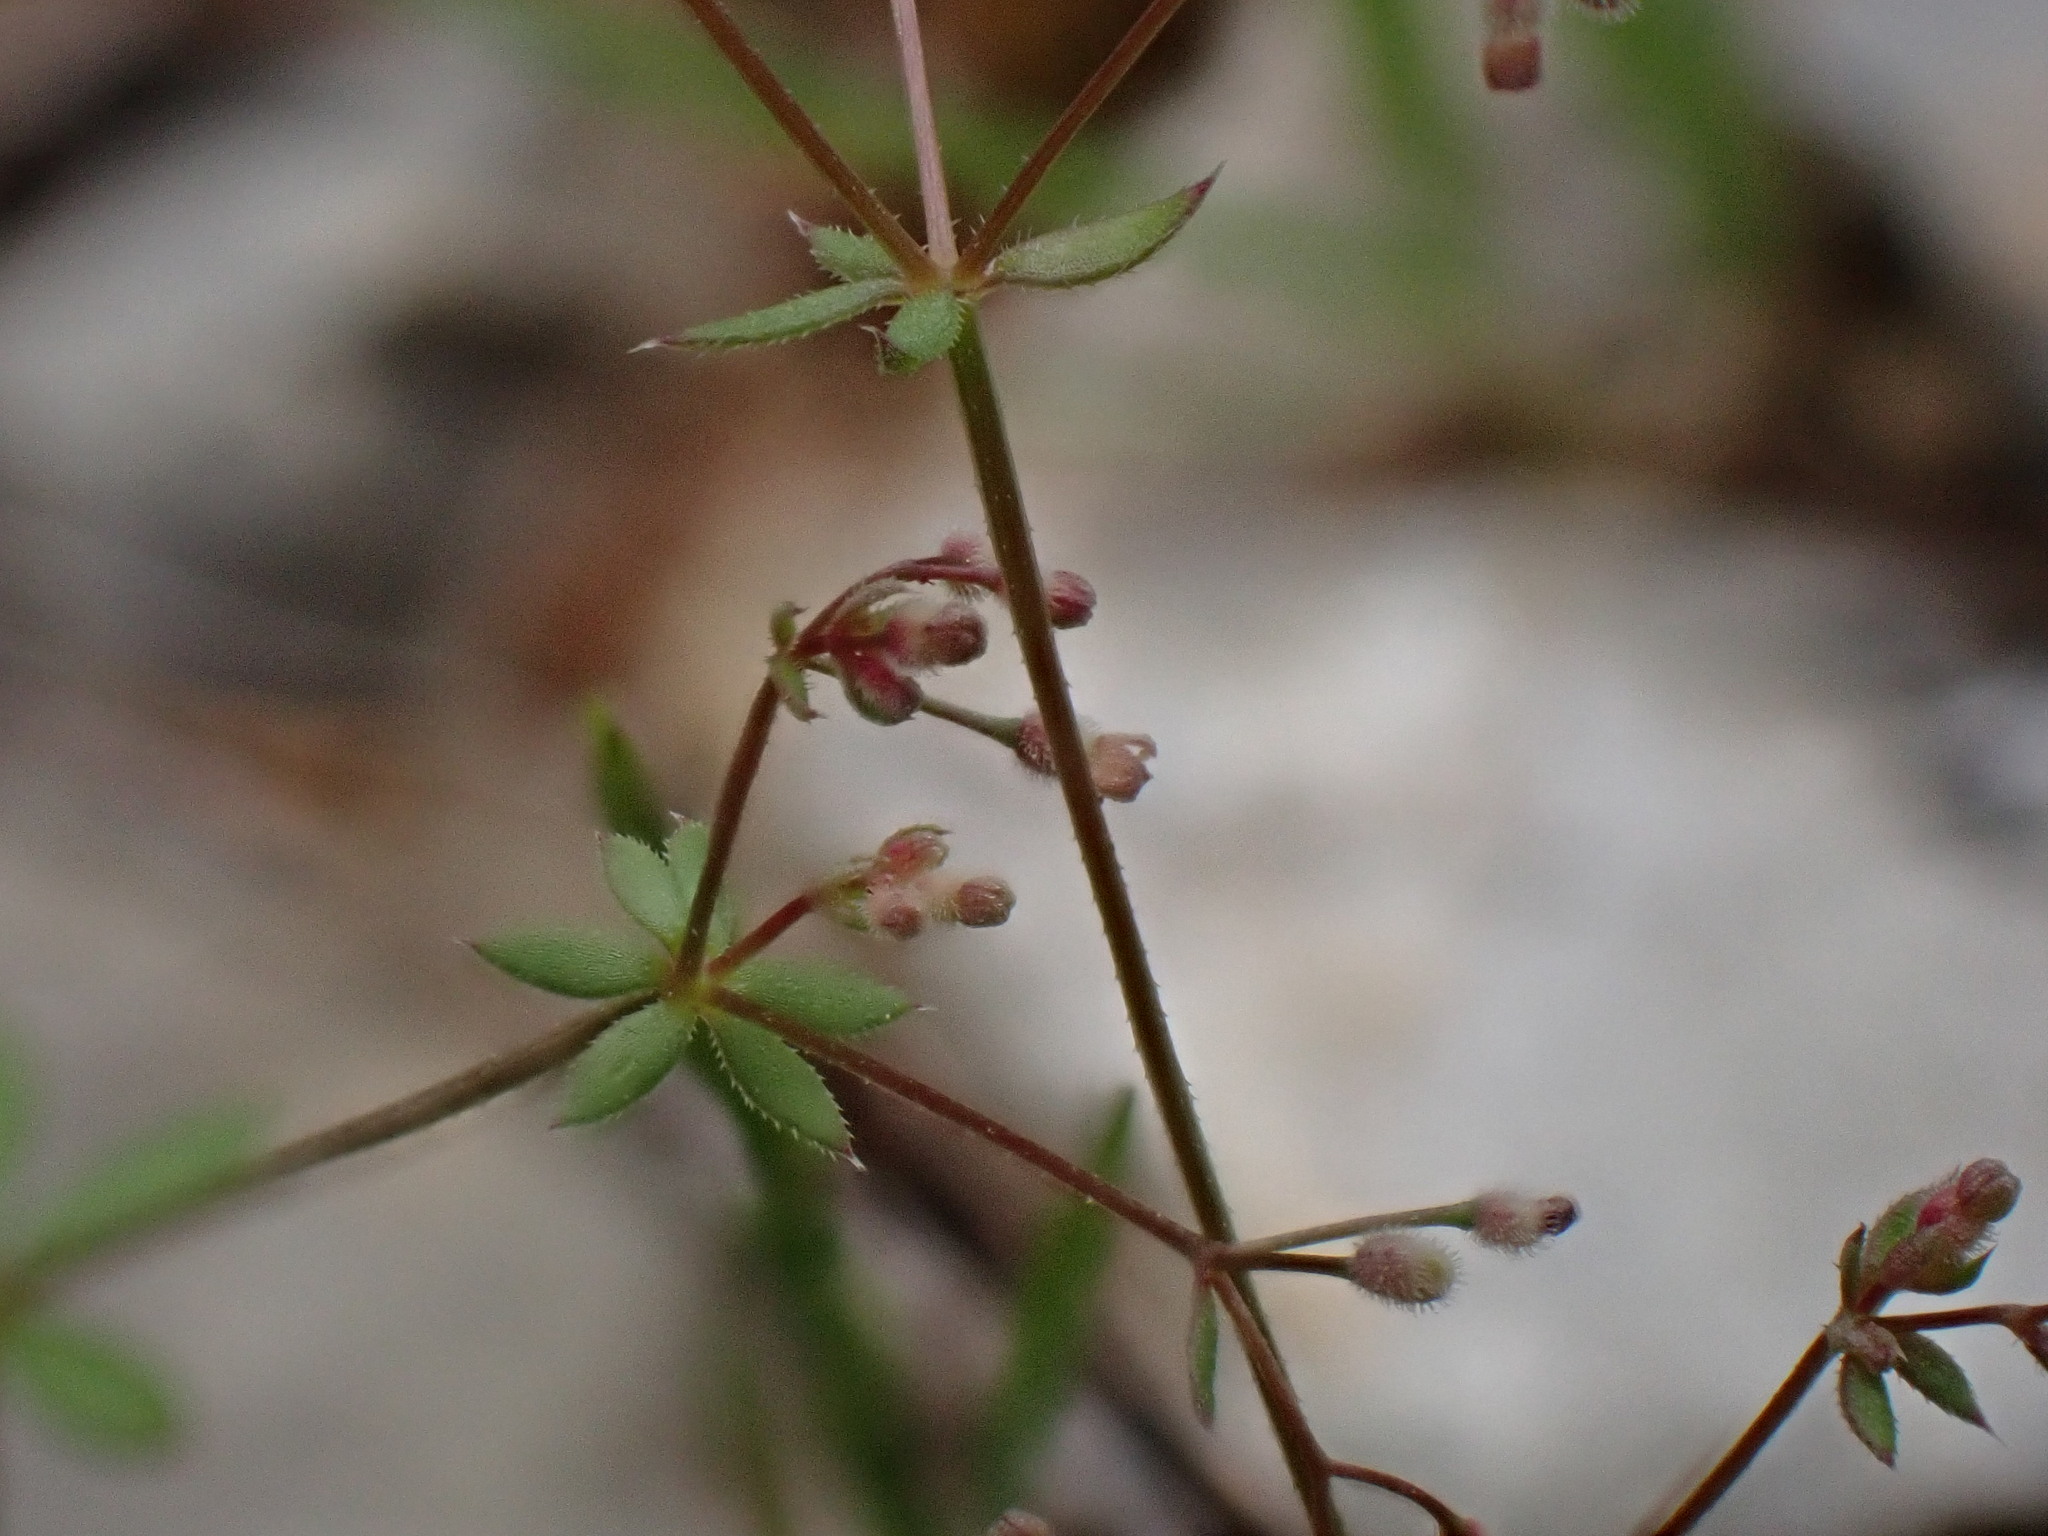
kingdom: Plantae
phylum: Tracheophyta
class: Magnoliopsida
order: Gentianales
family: Rubiaceae
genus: Galium
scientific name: Galium parisiense
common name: Wall bedstraw
